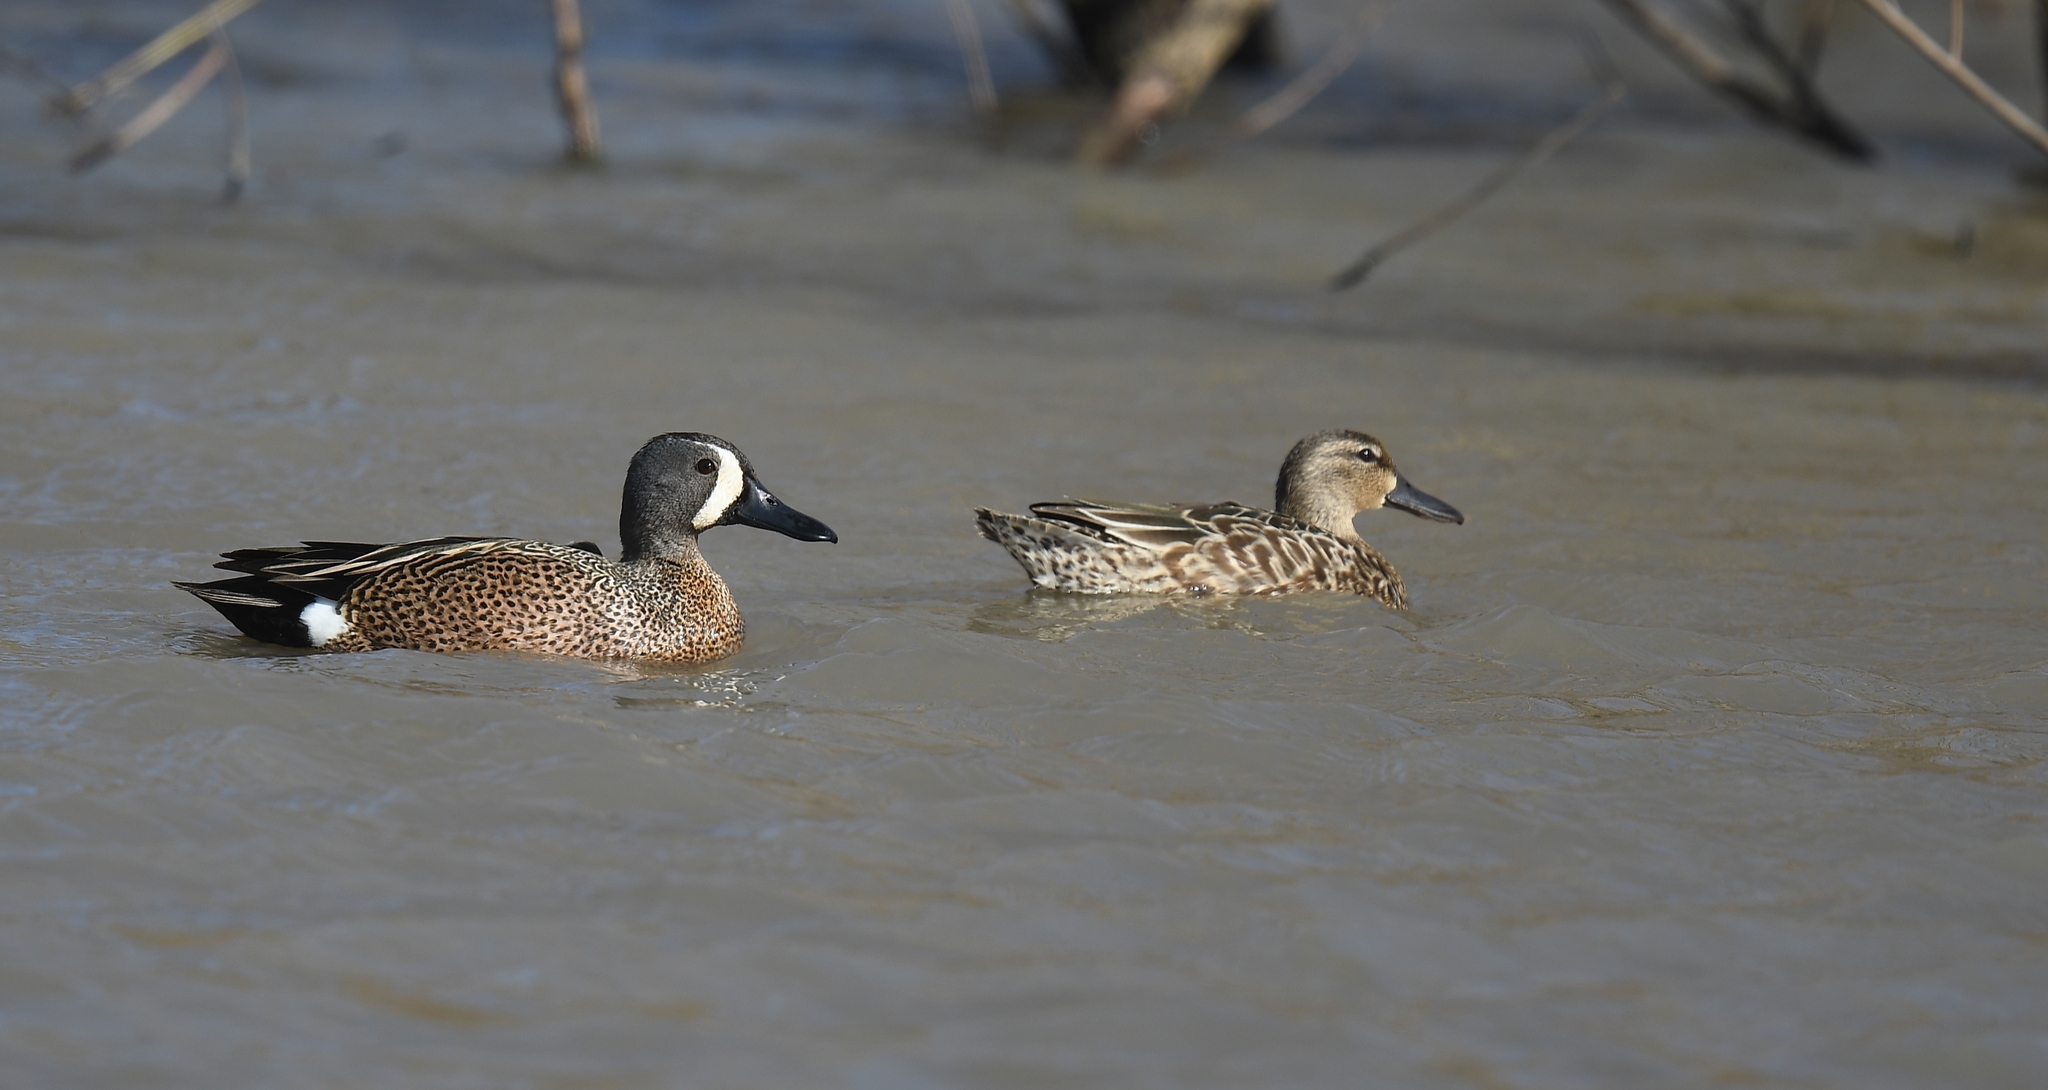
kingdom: Animalia
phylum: Chordata
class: Aves
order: Anseriformes
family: Anatidae
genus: Spatula
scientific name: Spatula discors
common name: Blue-winged teal
